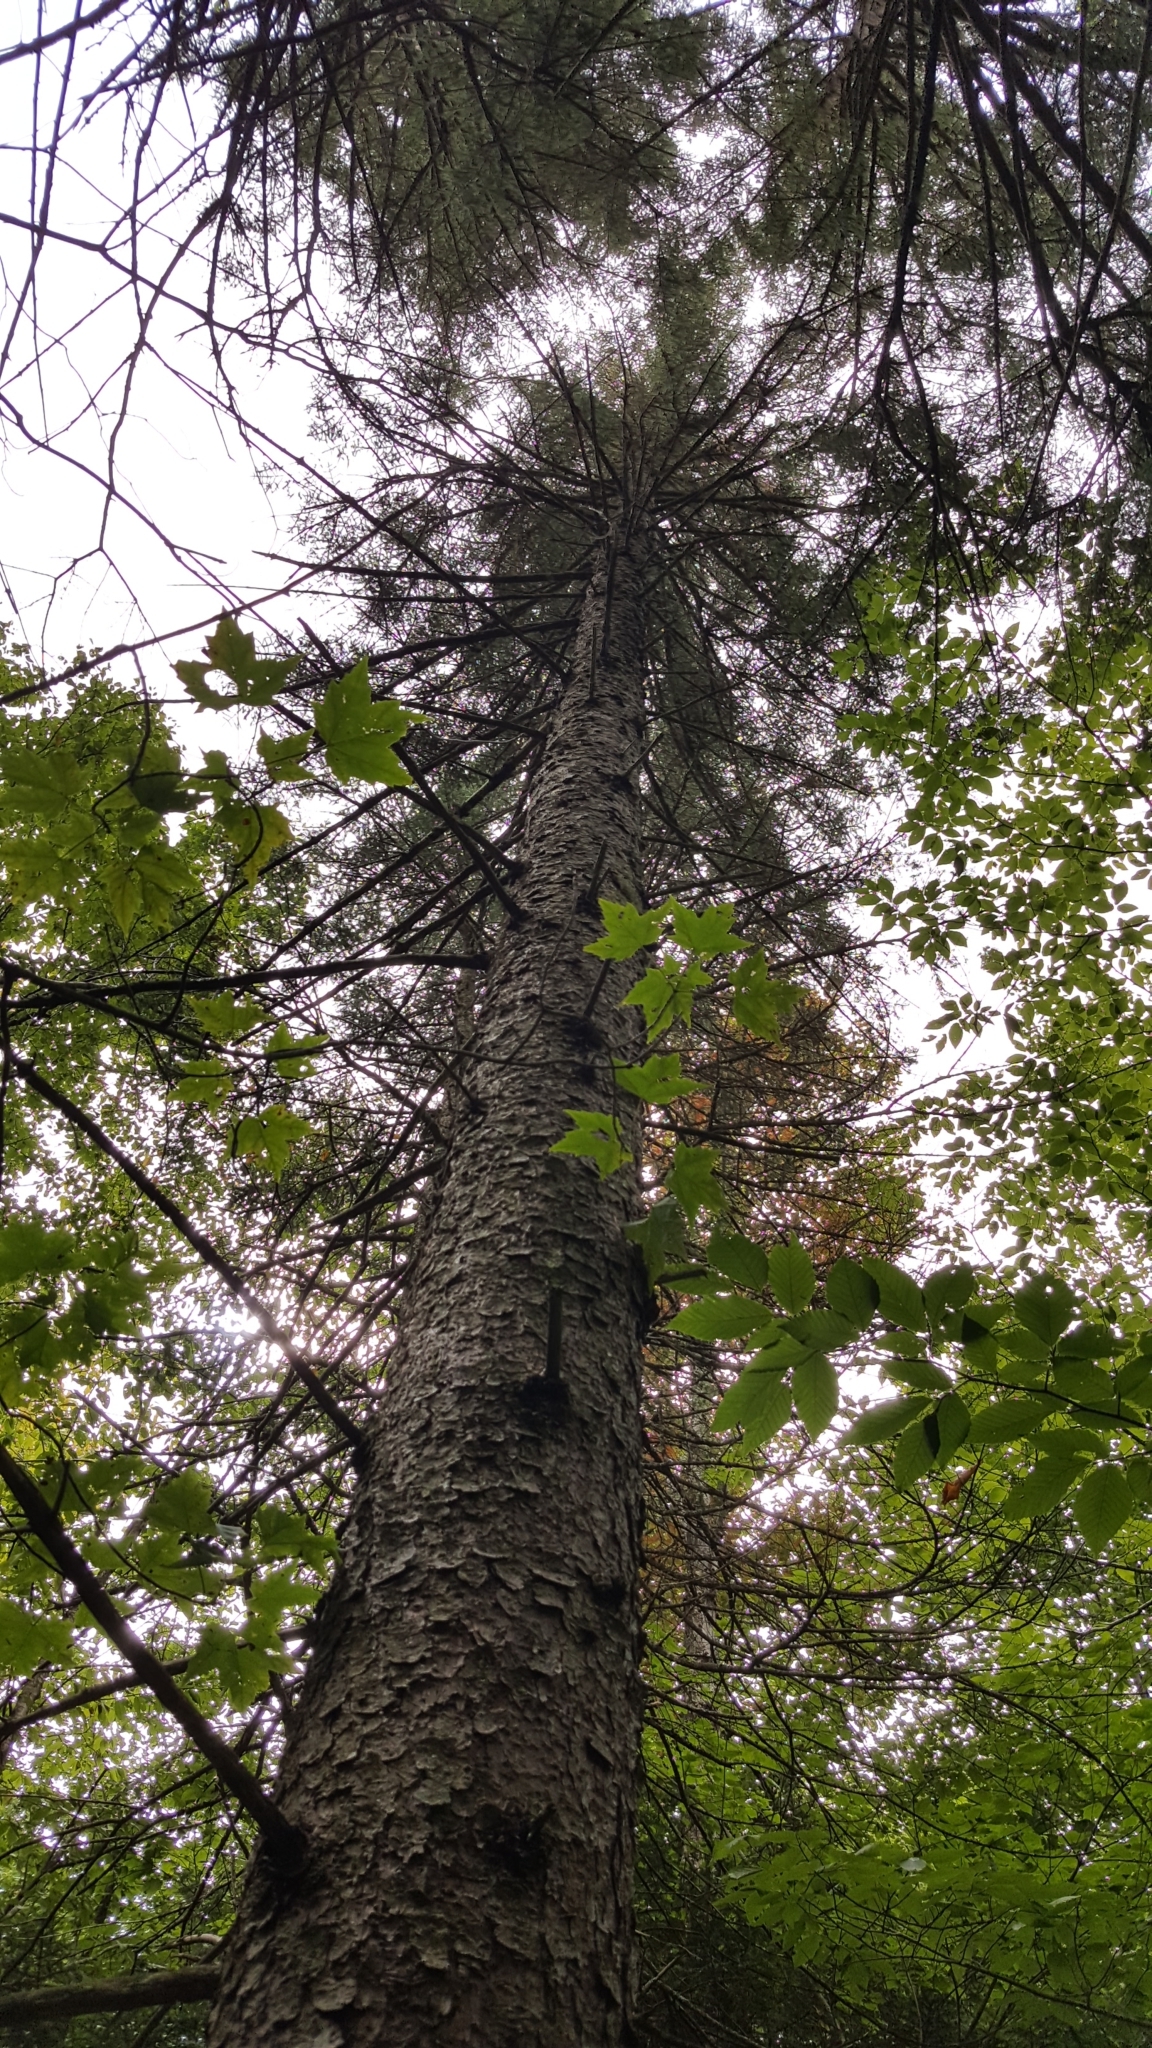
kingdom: Plantae
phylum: Tracheophyta
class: Pinopsida
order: Pinales
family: Pinaceae
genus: Picea
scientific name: Picea rubens
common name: Red spruce
